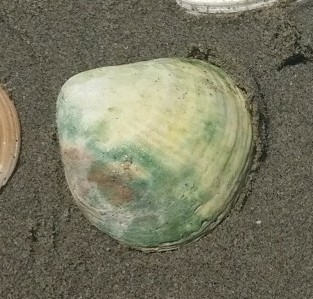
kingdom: Animalia
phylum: Mollusca
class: Bivalvia
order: Venerida
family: Veneridae
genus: Austrovenus
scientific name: Austrovenus stutchburyi
